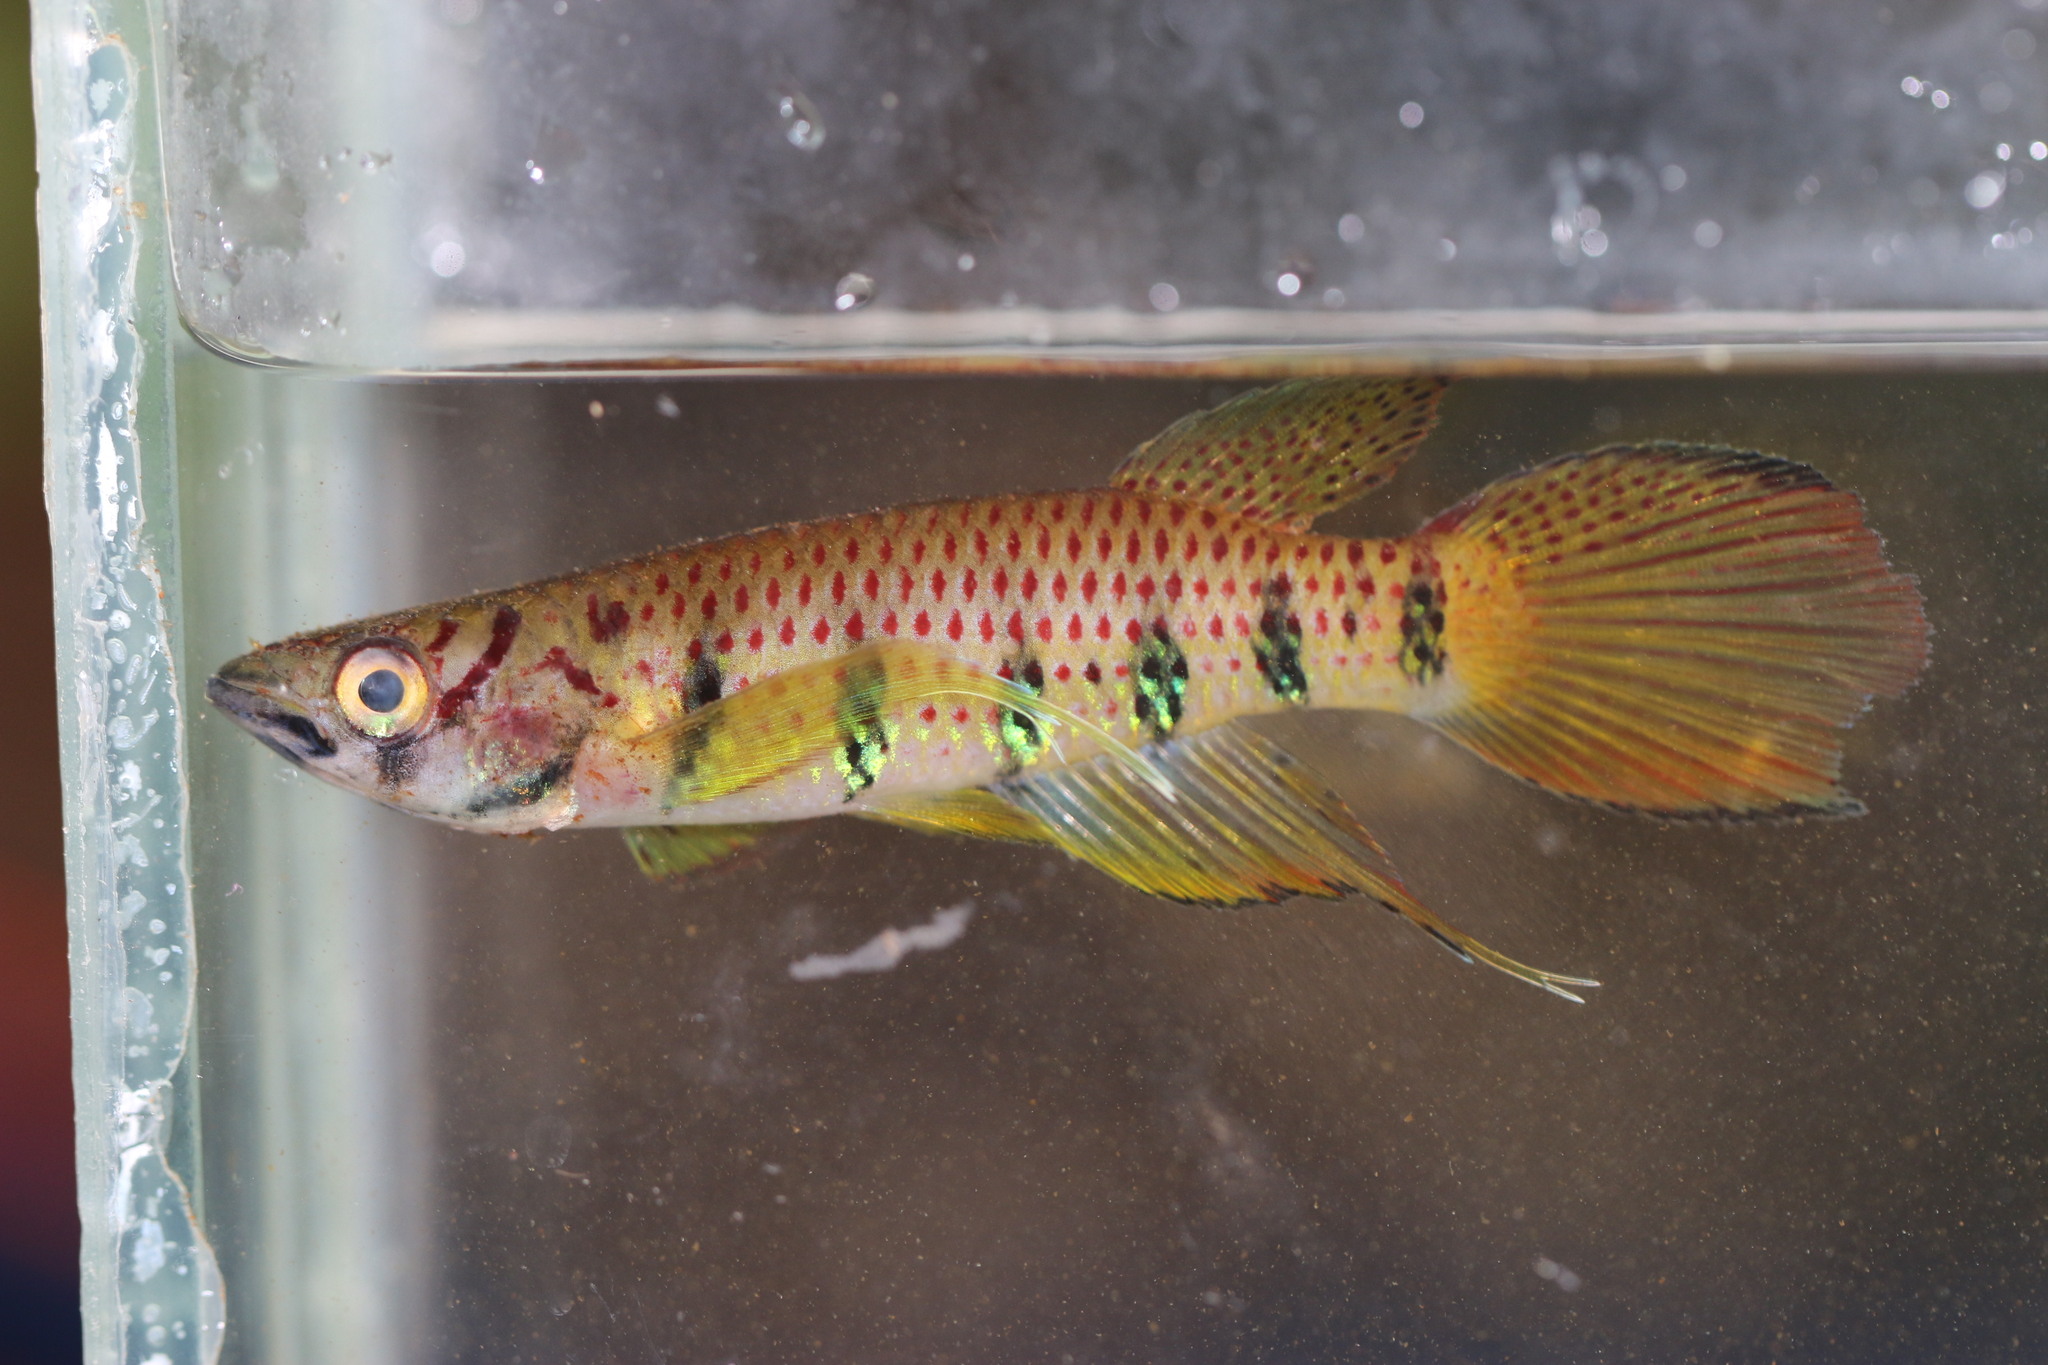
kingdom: Animalia
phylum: Chordata
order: Cyprinodontiformes
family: Nothobranchiidae
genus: Epiplatys
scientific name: Epiplatys ansorgii
